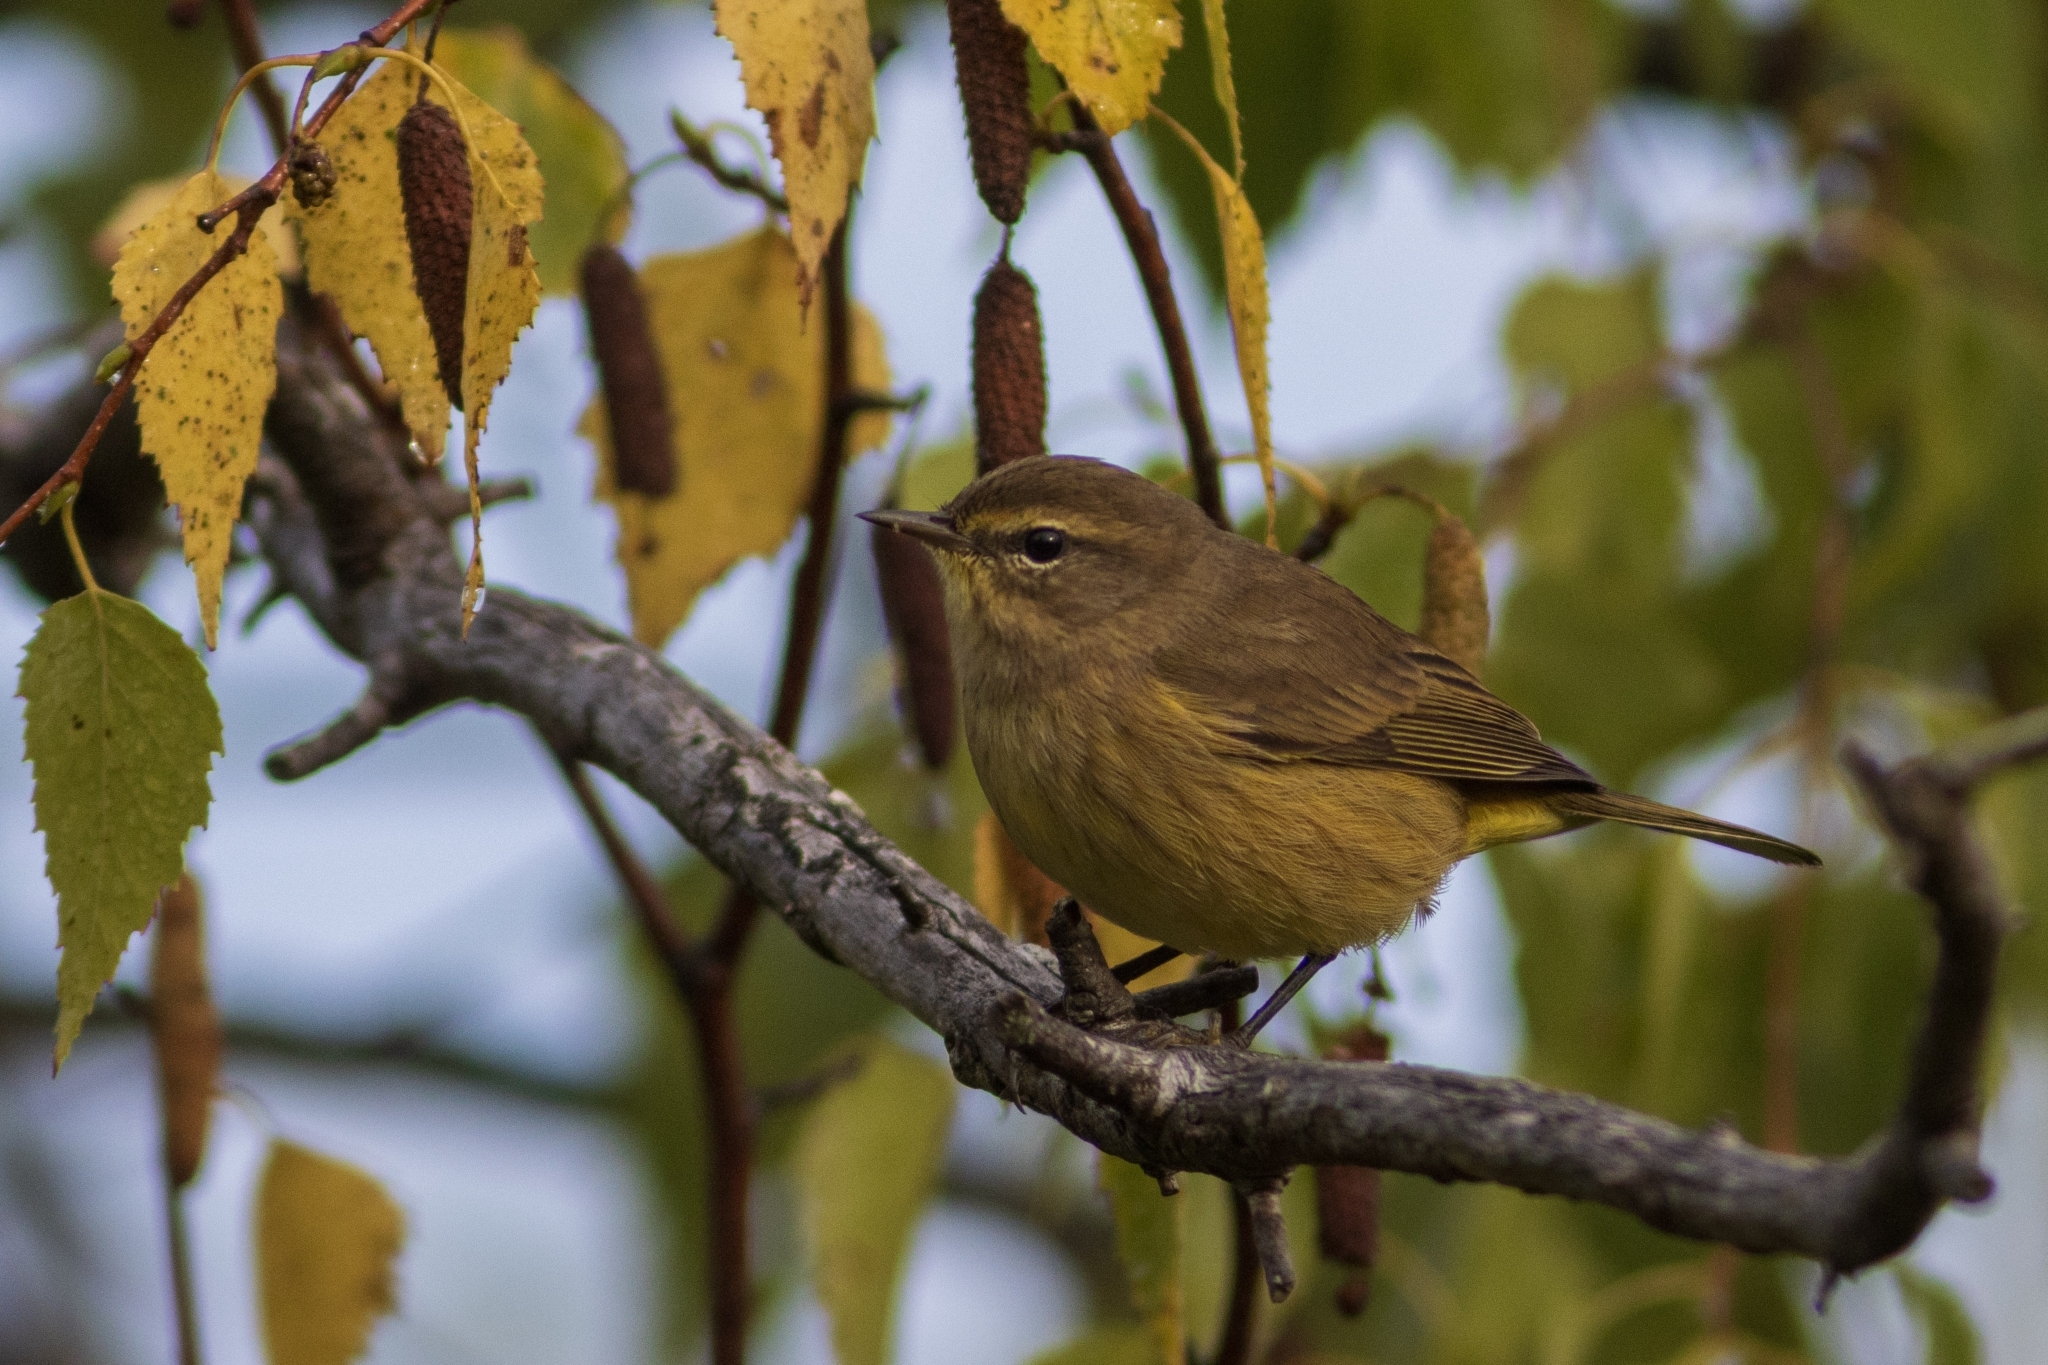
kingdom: Animalia
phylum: Chordata
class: Aves
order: Passeriformes
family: Parulidae
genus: Setophaga
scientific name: Setophaga palmarum
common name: Palm warbler
